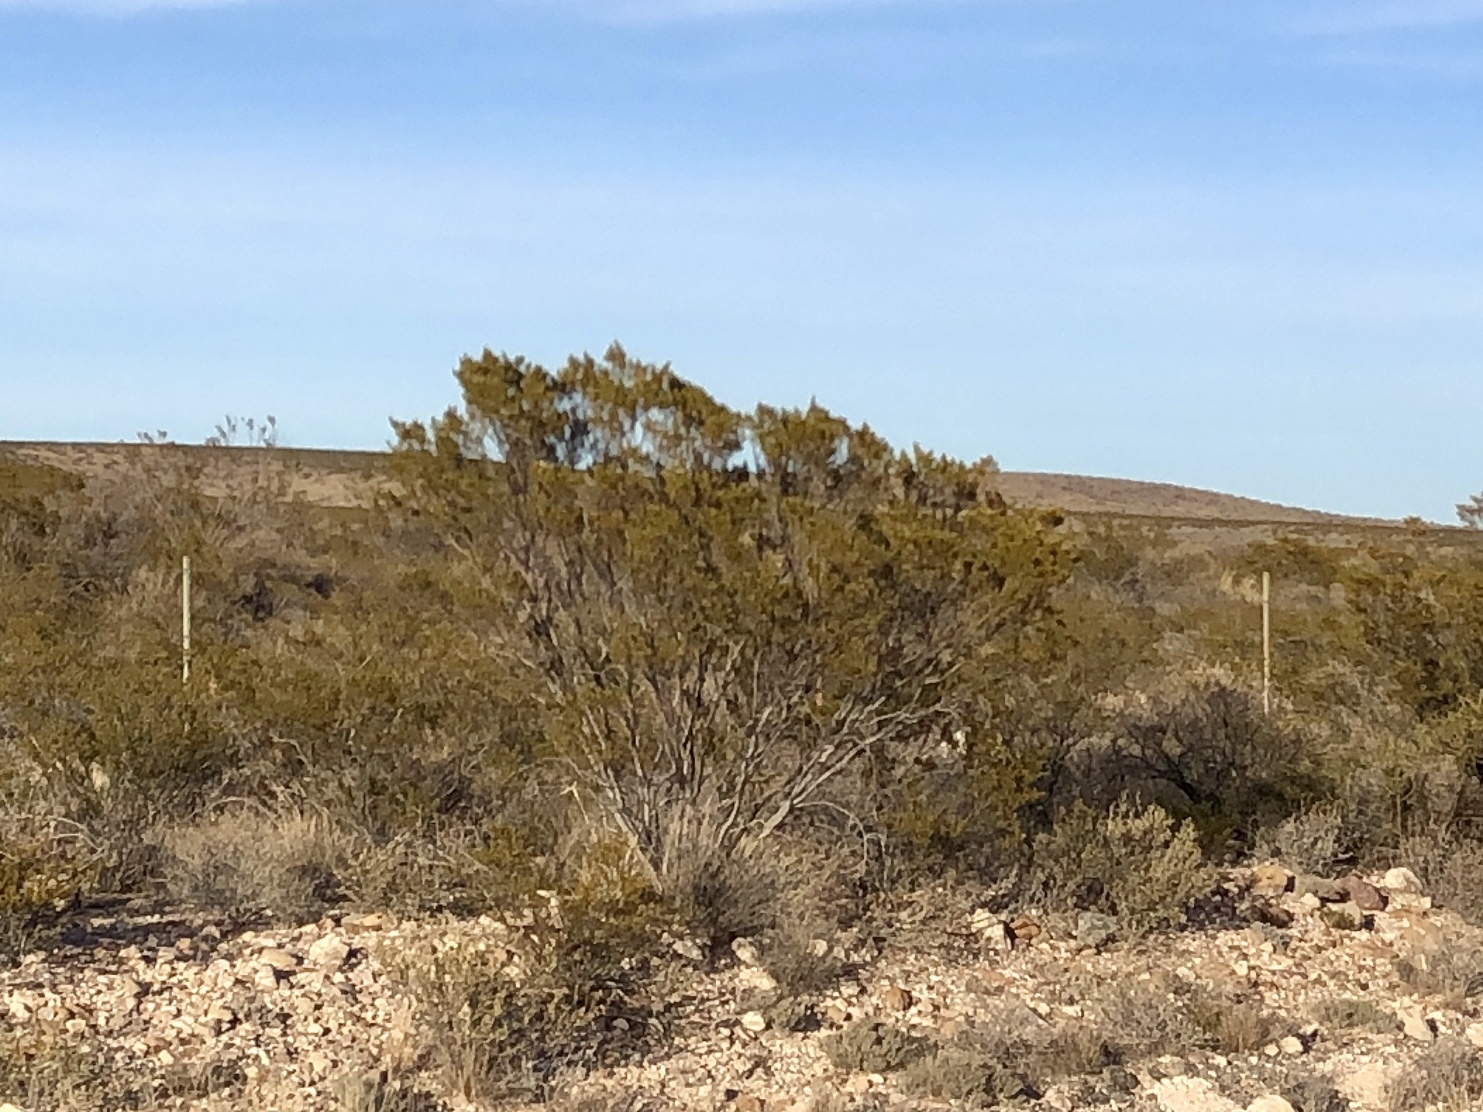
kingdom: Plantae
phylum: Tracheophyta
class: Magnoliopsida
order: Zygophyllales
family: Zygophyllaceae
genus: Larrea
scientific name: Larrea tridentata
